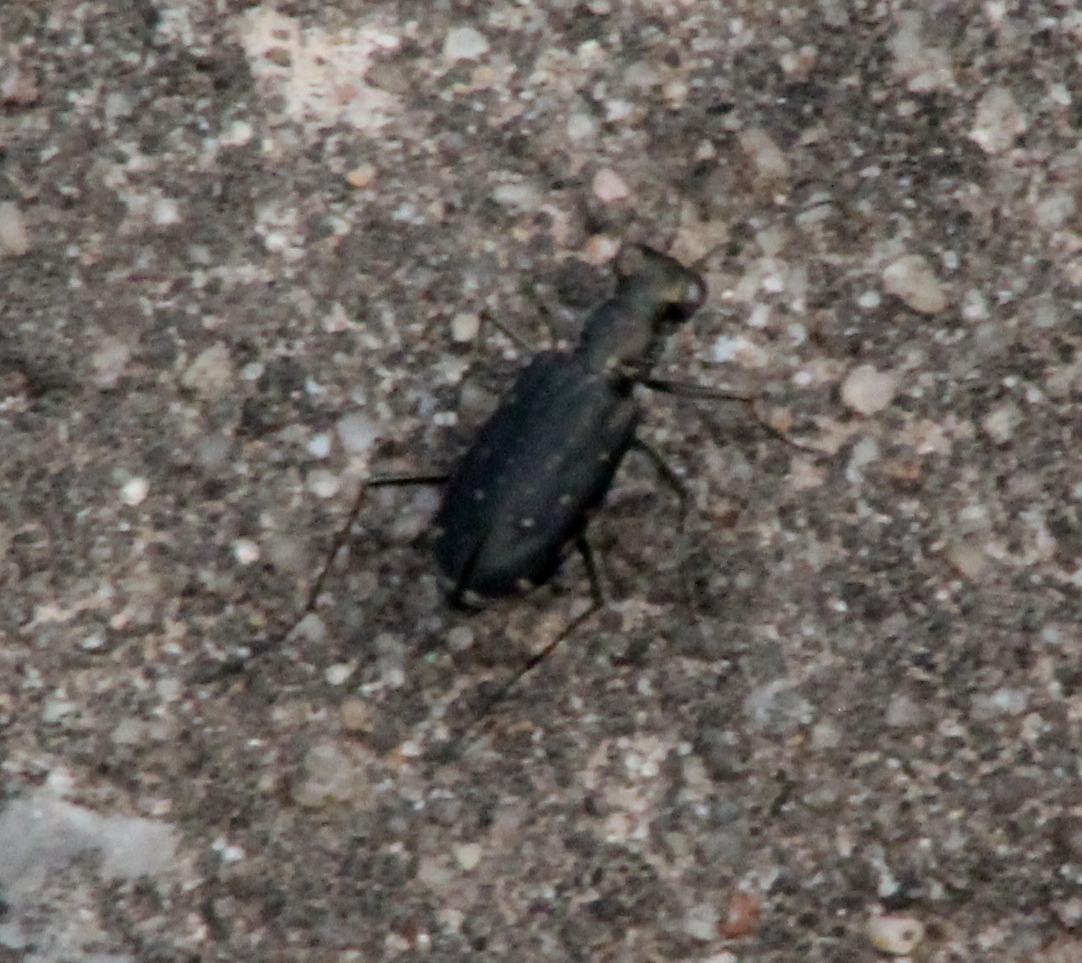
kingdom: Animalia
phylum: Arthropoda
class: Insecta
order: Coleoptera
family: Carabidae
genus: Cicindela
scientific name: Cicindela punctulata
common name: Punctured tiger beetle
